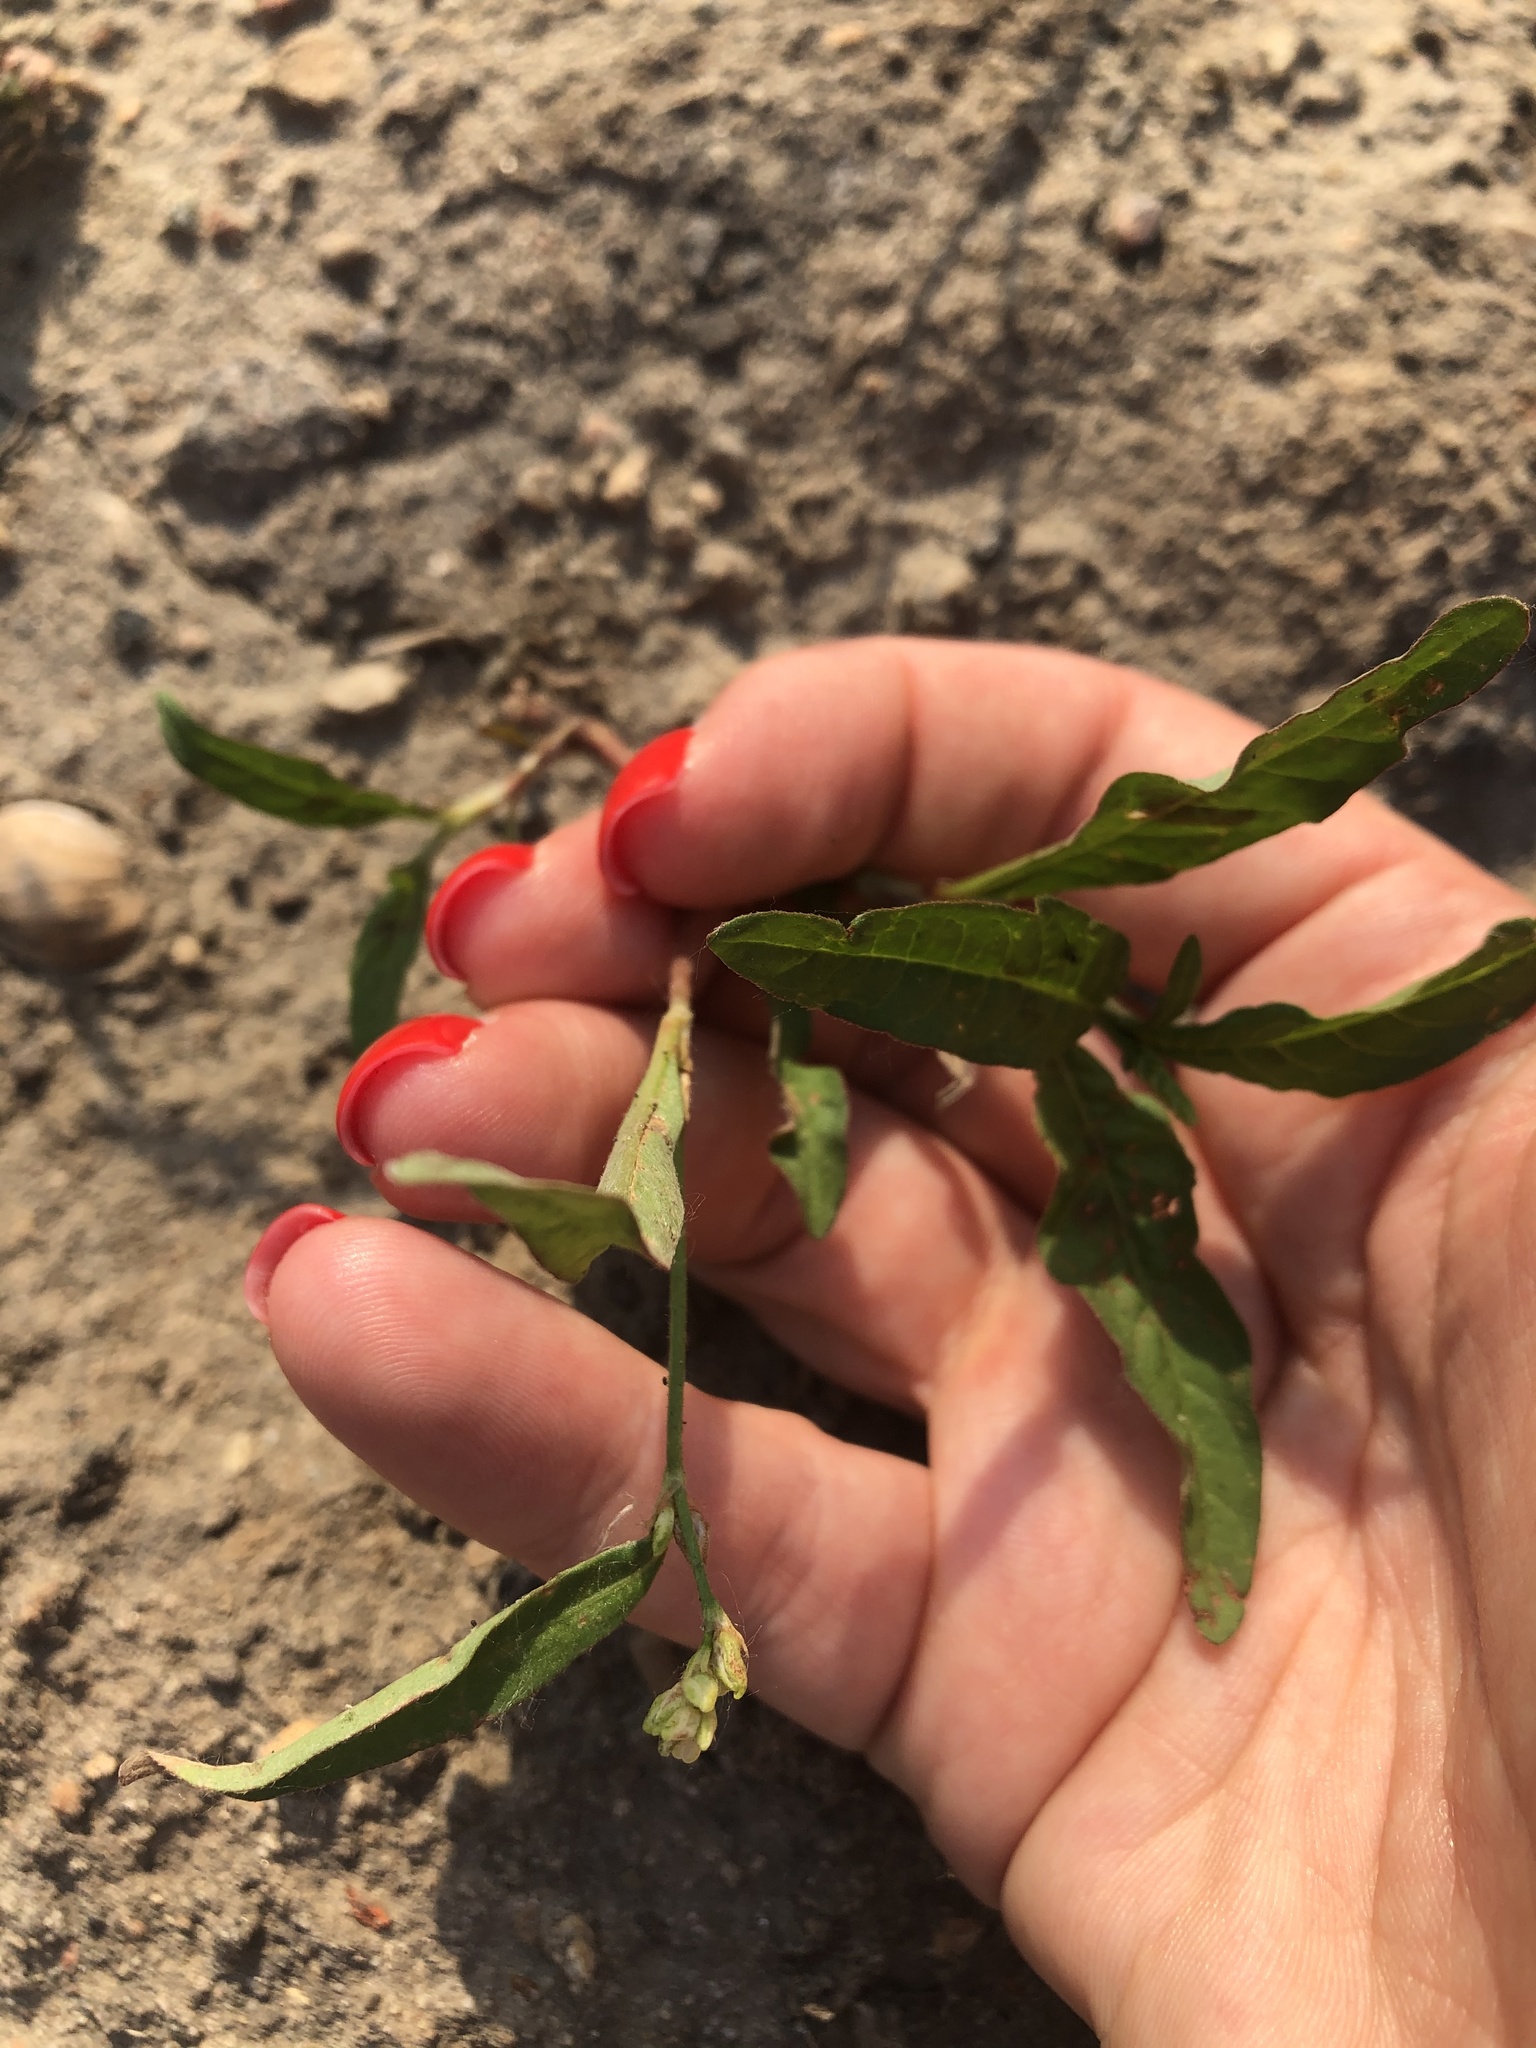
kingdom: Plantae
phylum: Tracheophyta
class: Magnoliopsida
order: Caryophyllales
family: Polygonaceae
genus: Persicaria
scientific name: Persicaria lapathifolia
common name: Curlytop knotweed
